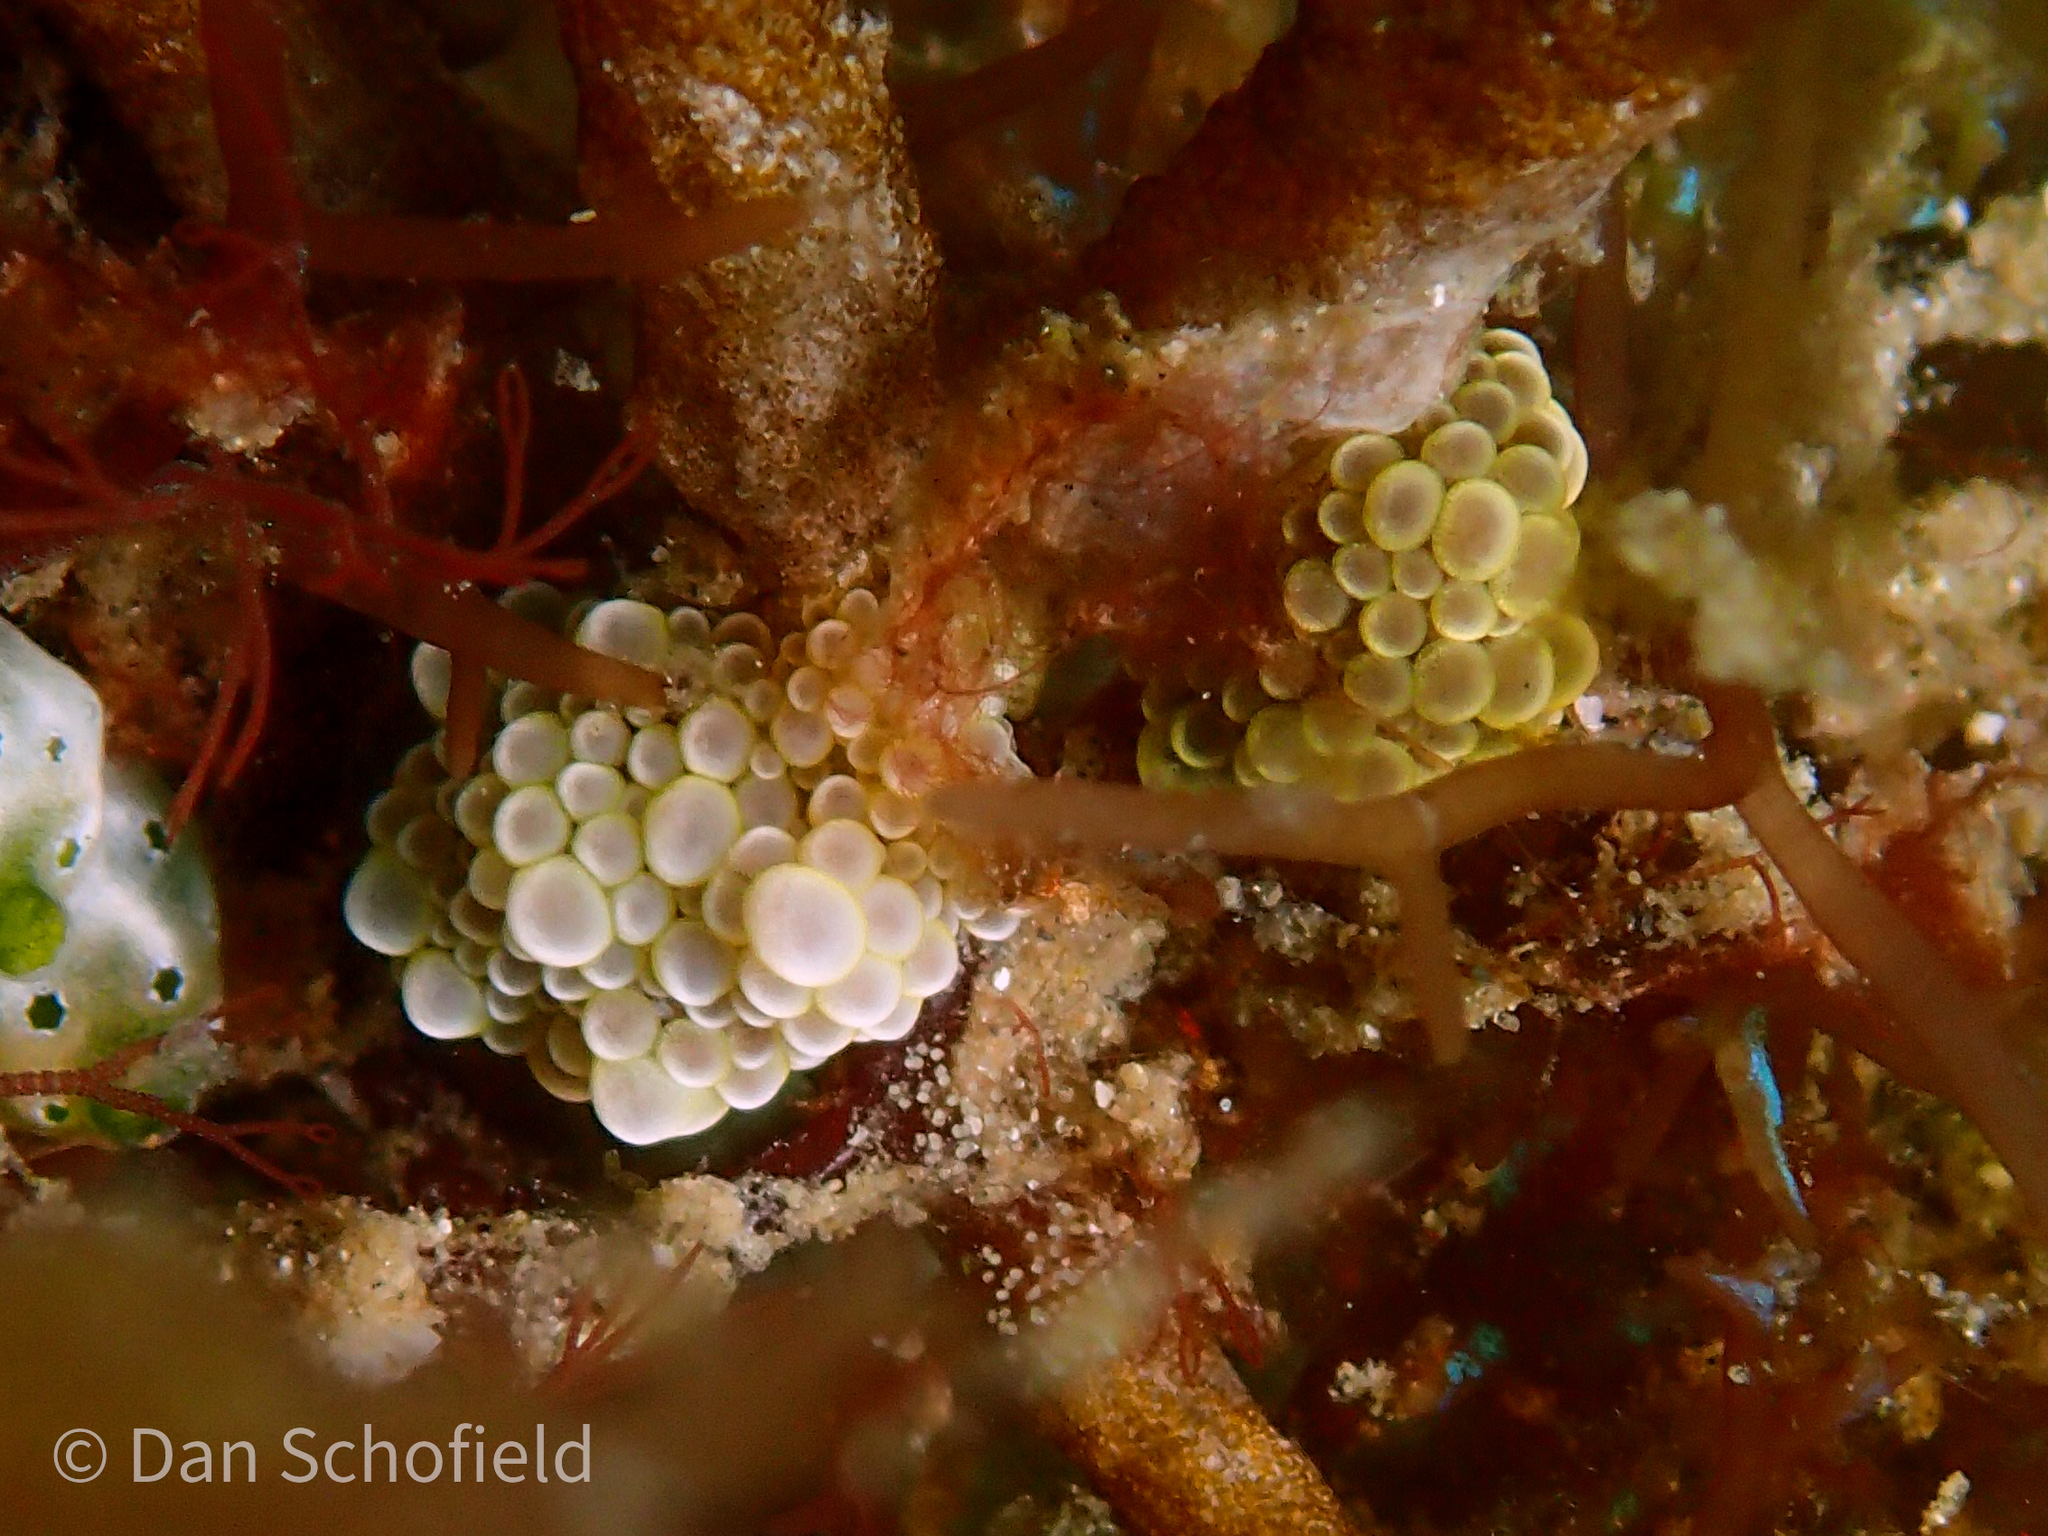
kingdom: Animalia
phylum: Mollusca
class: Gastropoda
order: Nudibranchia
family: Dotidae
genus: Doto
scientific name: Doto ussi
